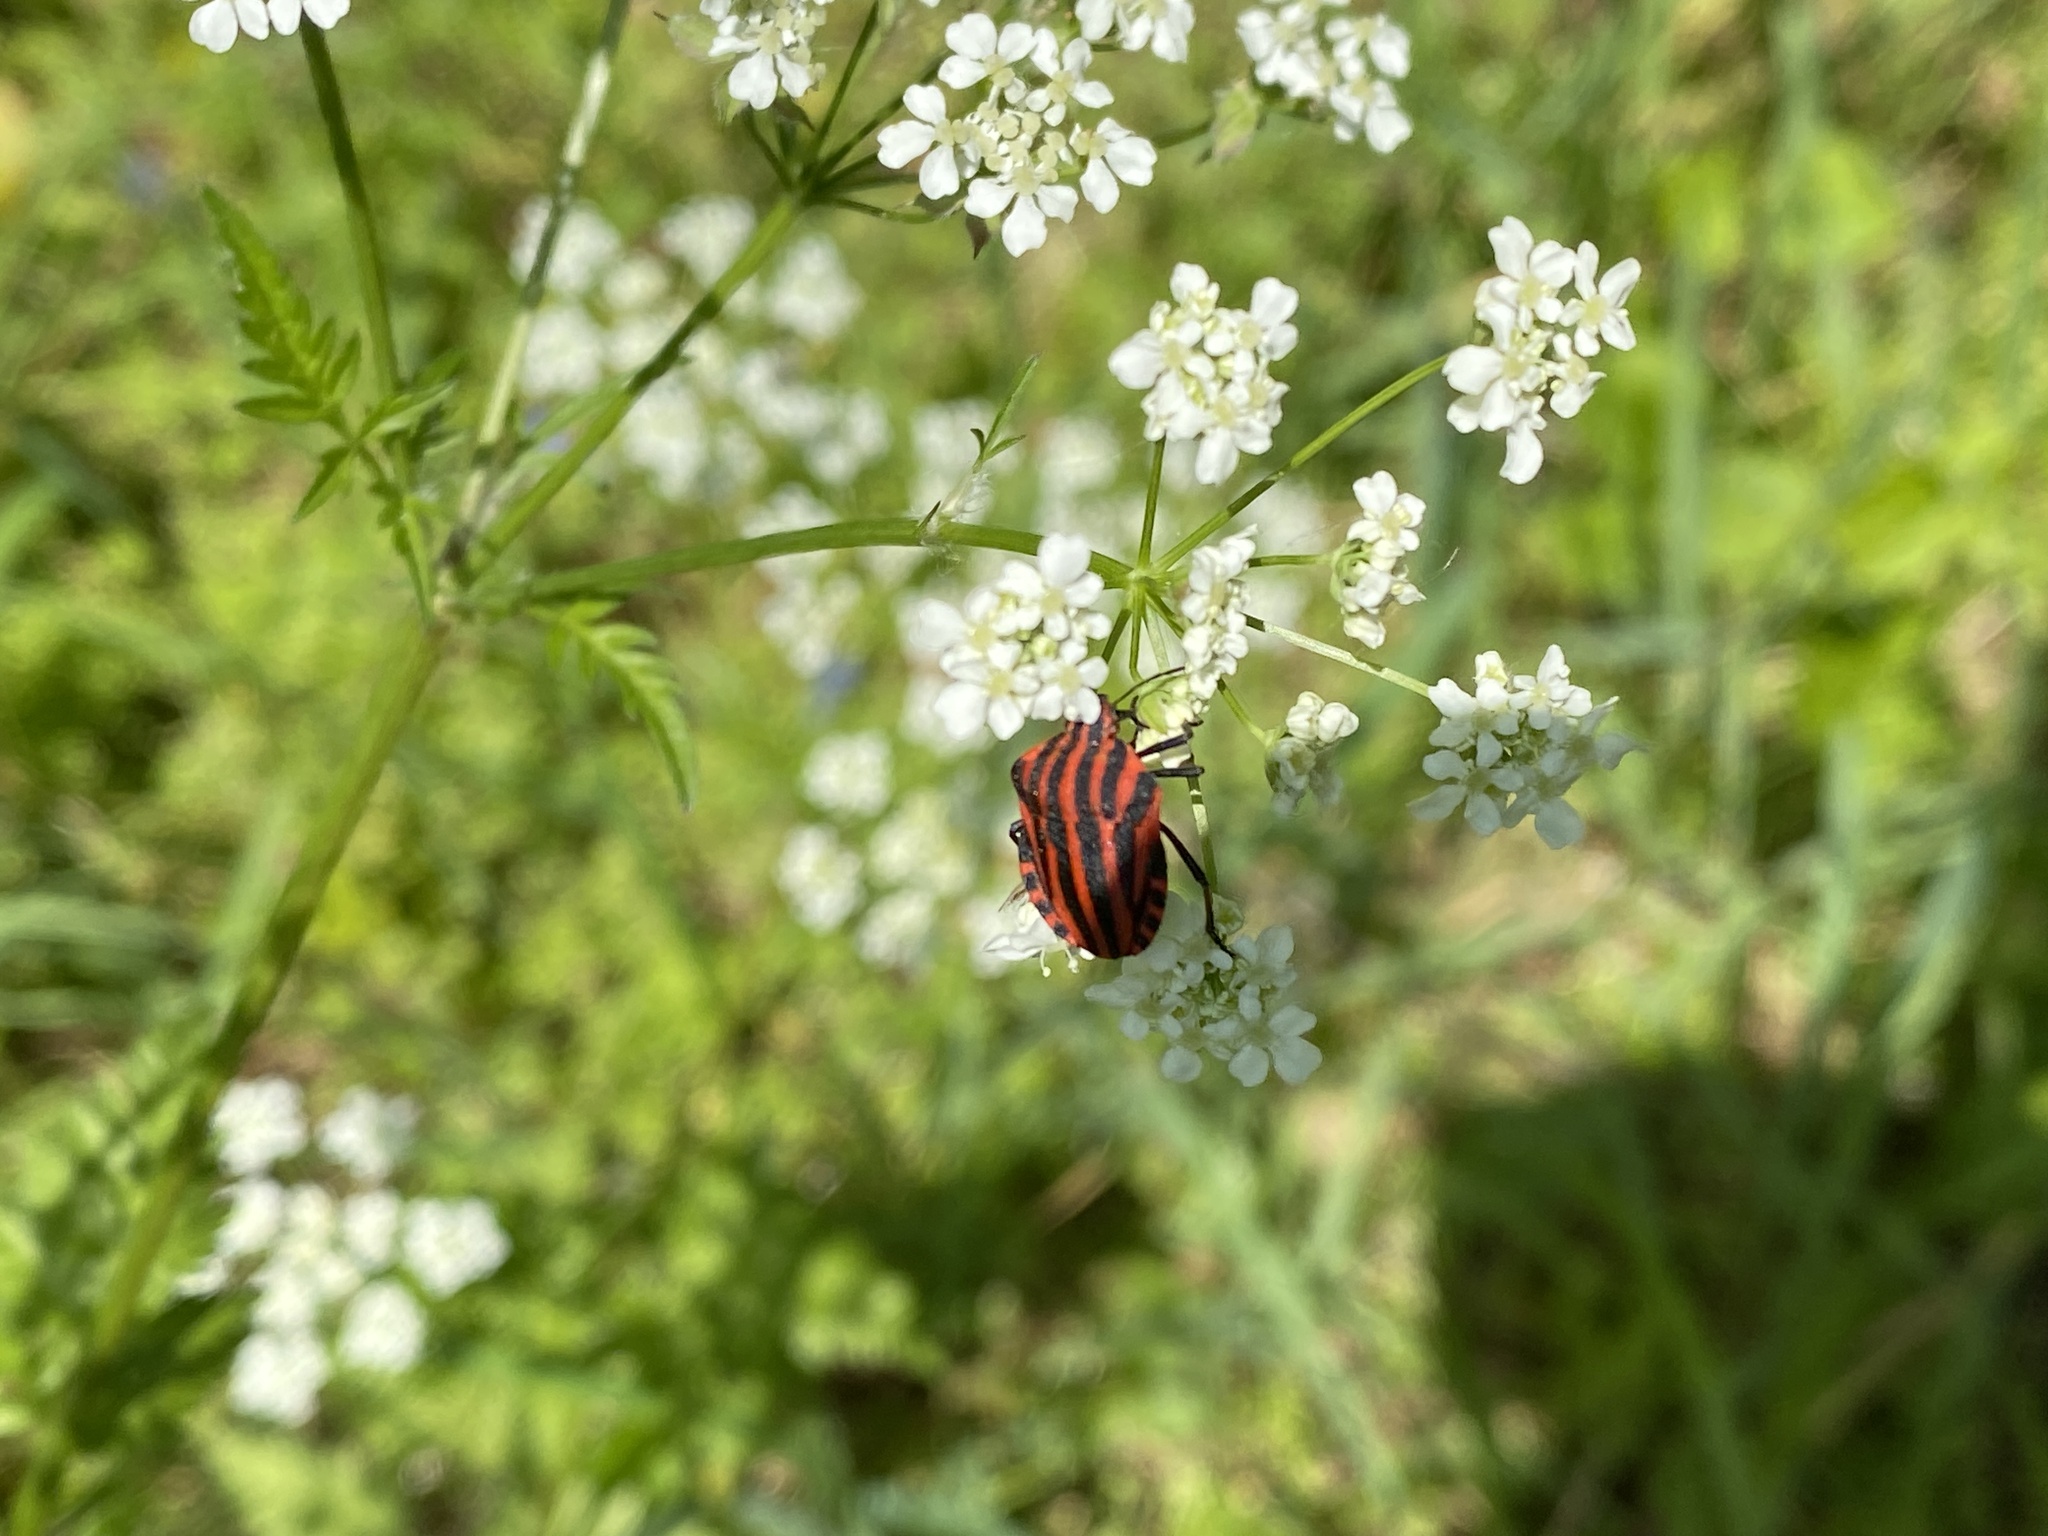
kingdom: Animalia
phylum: Arthropoda
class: Insecta
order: Hemiptera
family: Pentatomidae
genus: Graphosoma
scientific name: Graphosoma italicum
